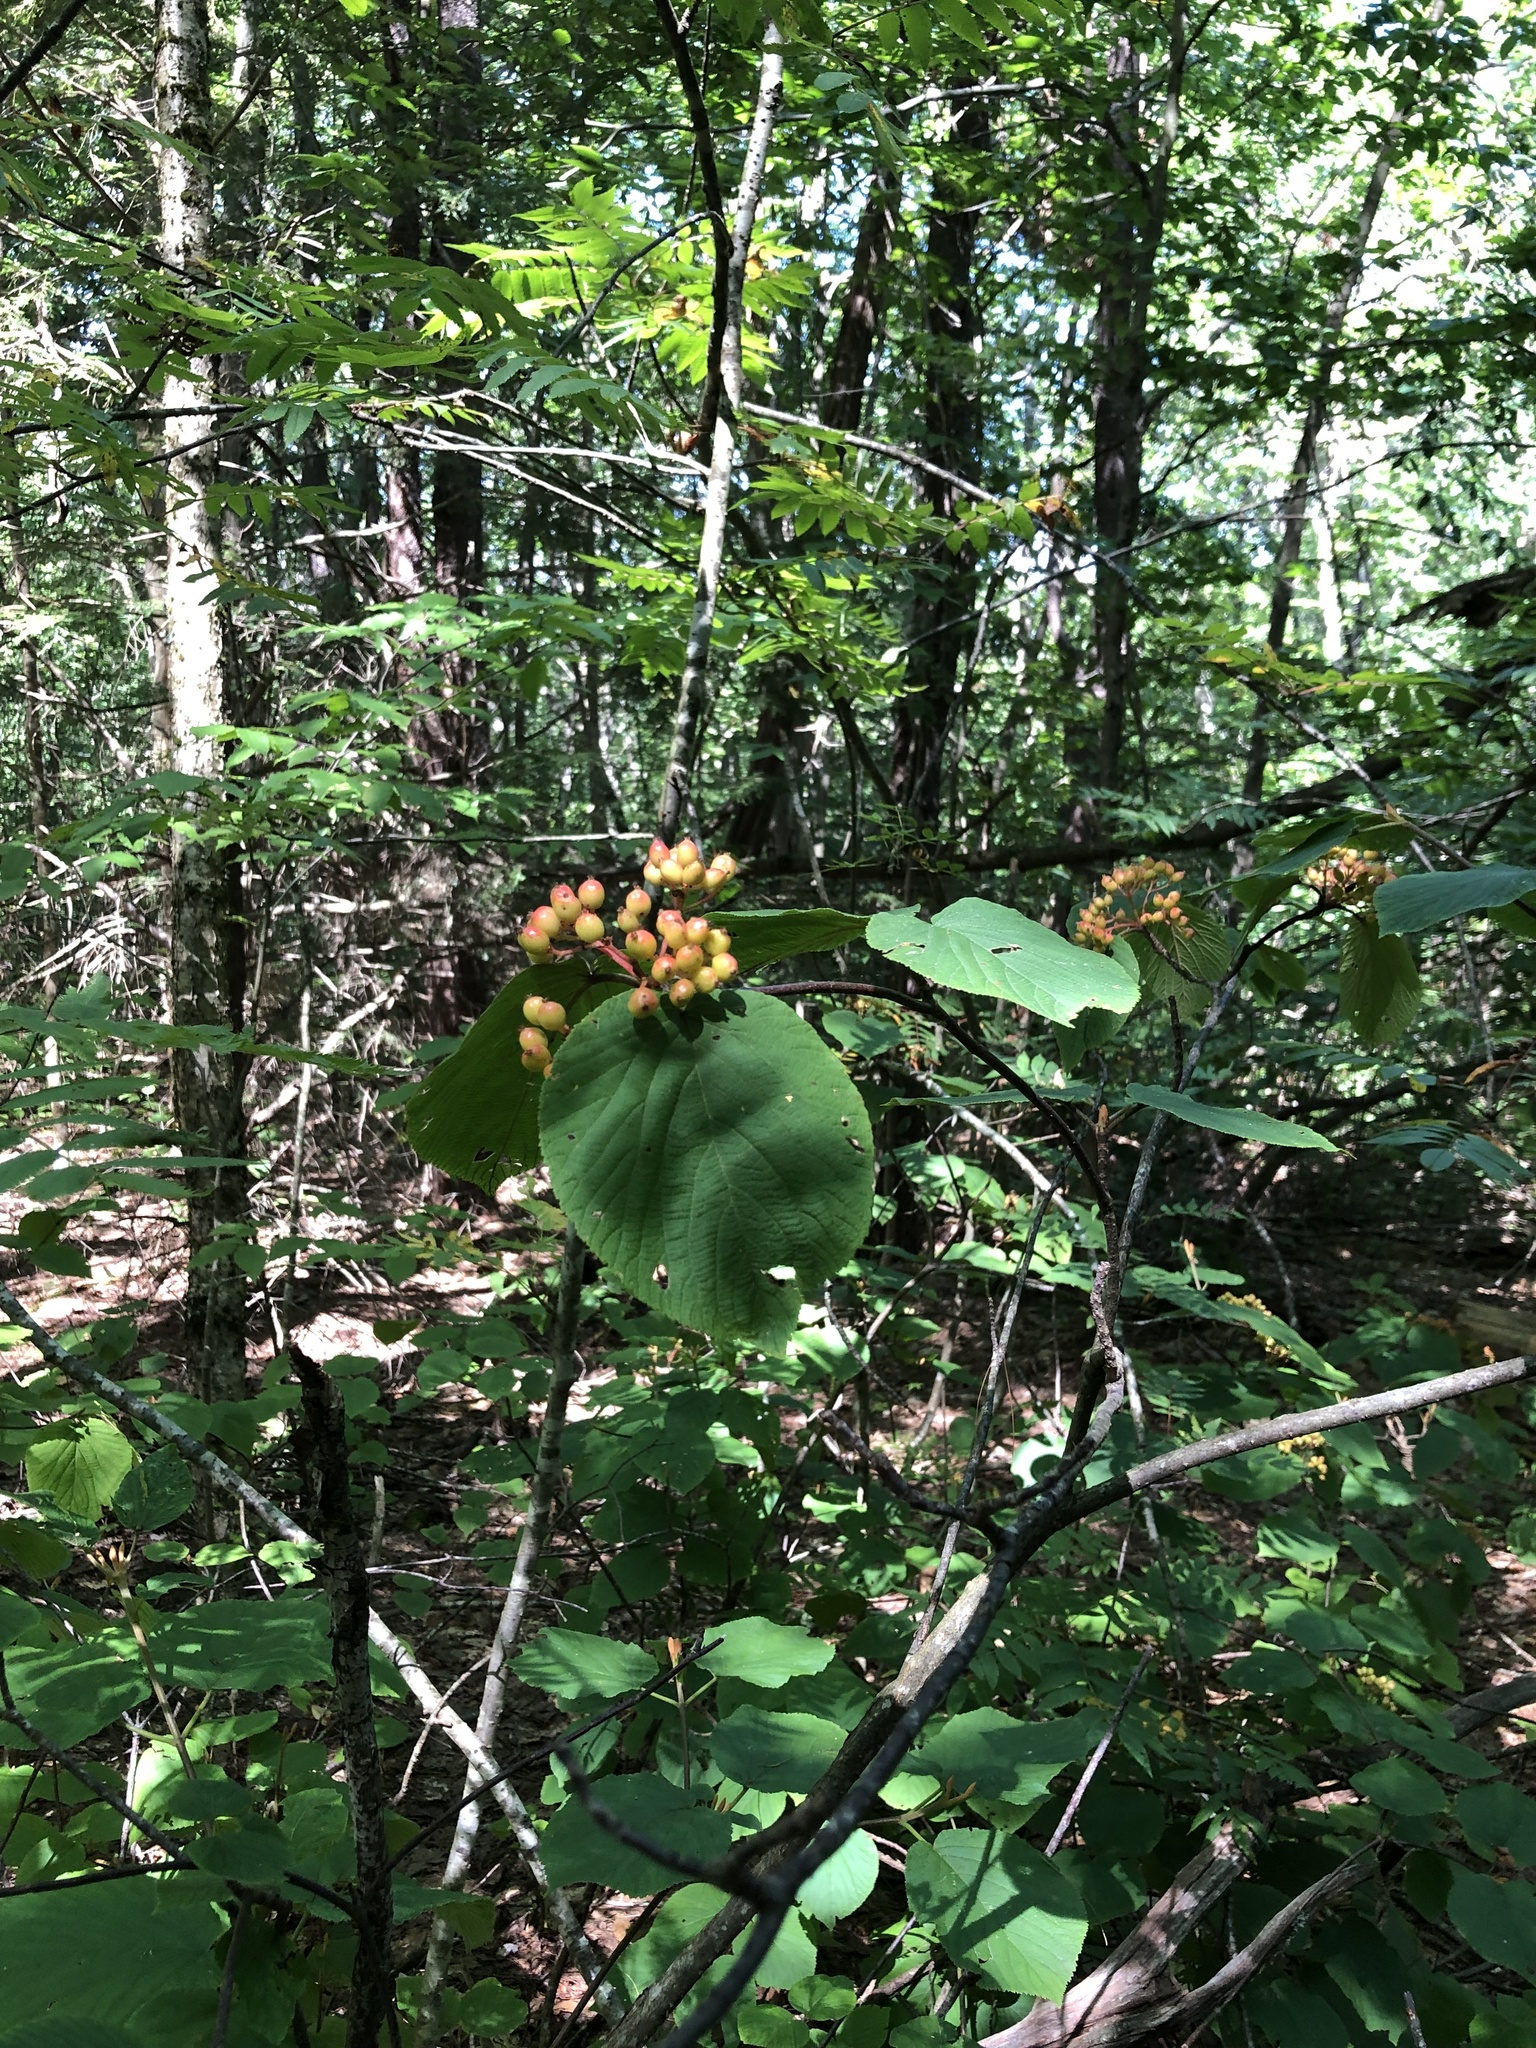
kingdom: Plantae
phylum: Tracheophyta
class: Magnoliopsida
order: Dipsacales
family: Viburnaceae
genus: Viburnum
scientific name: Viburnum lantanoides
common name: Hobblebush
